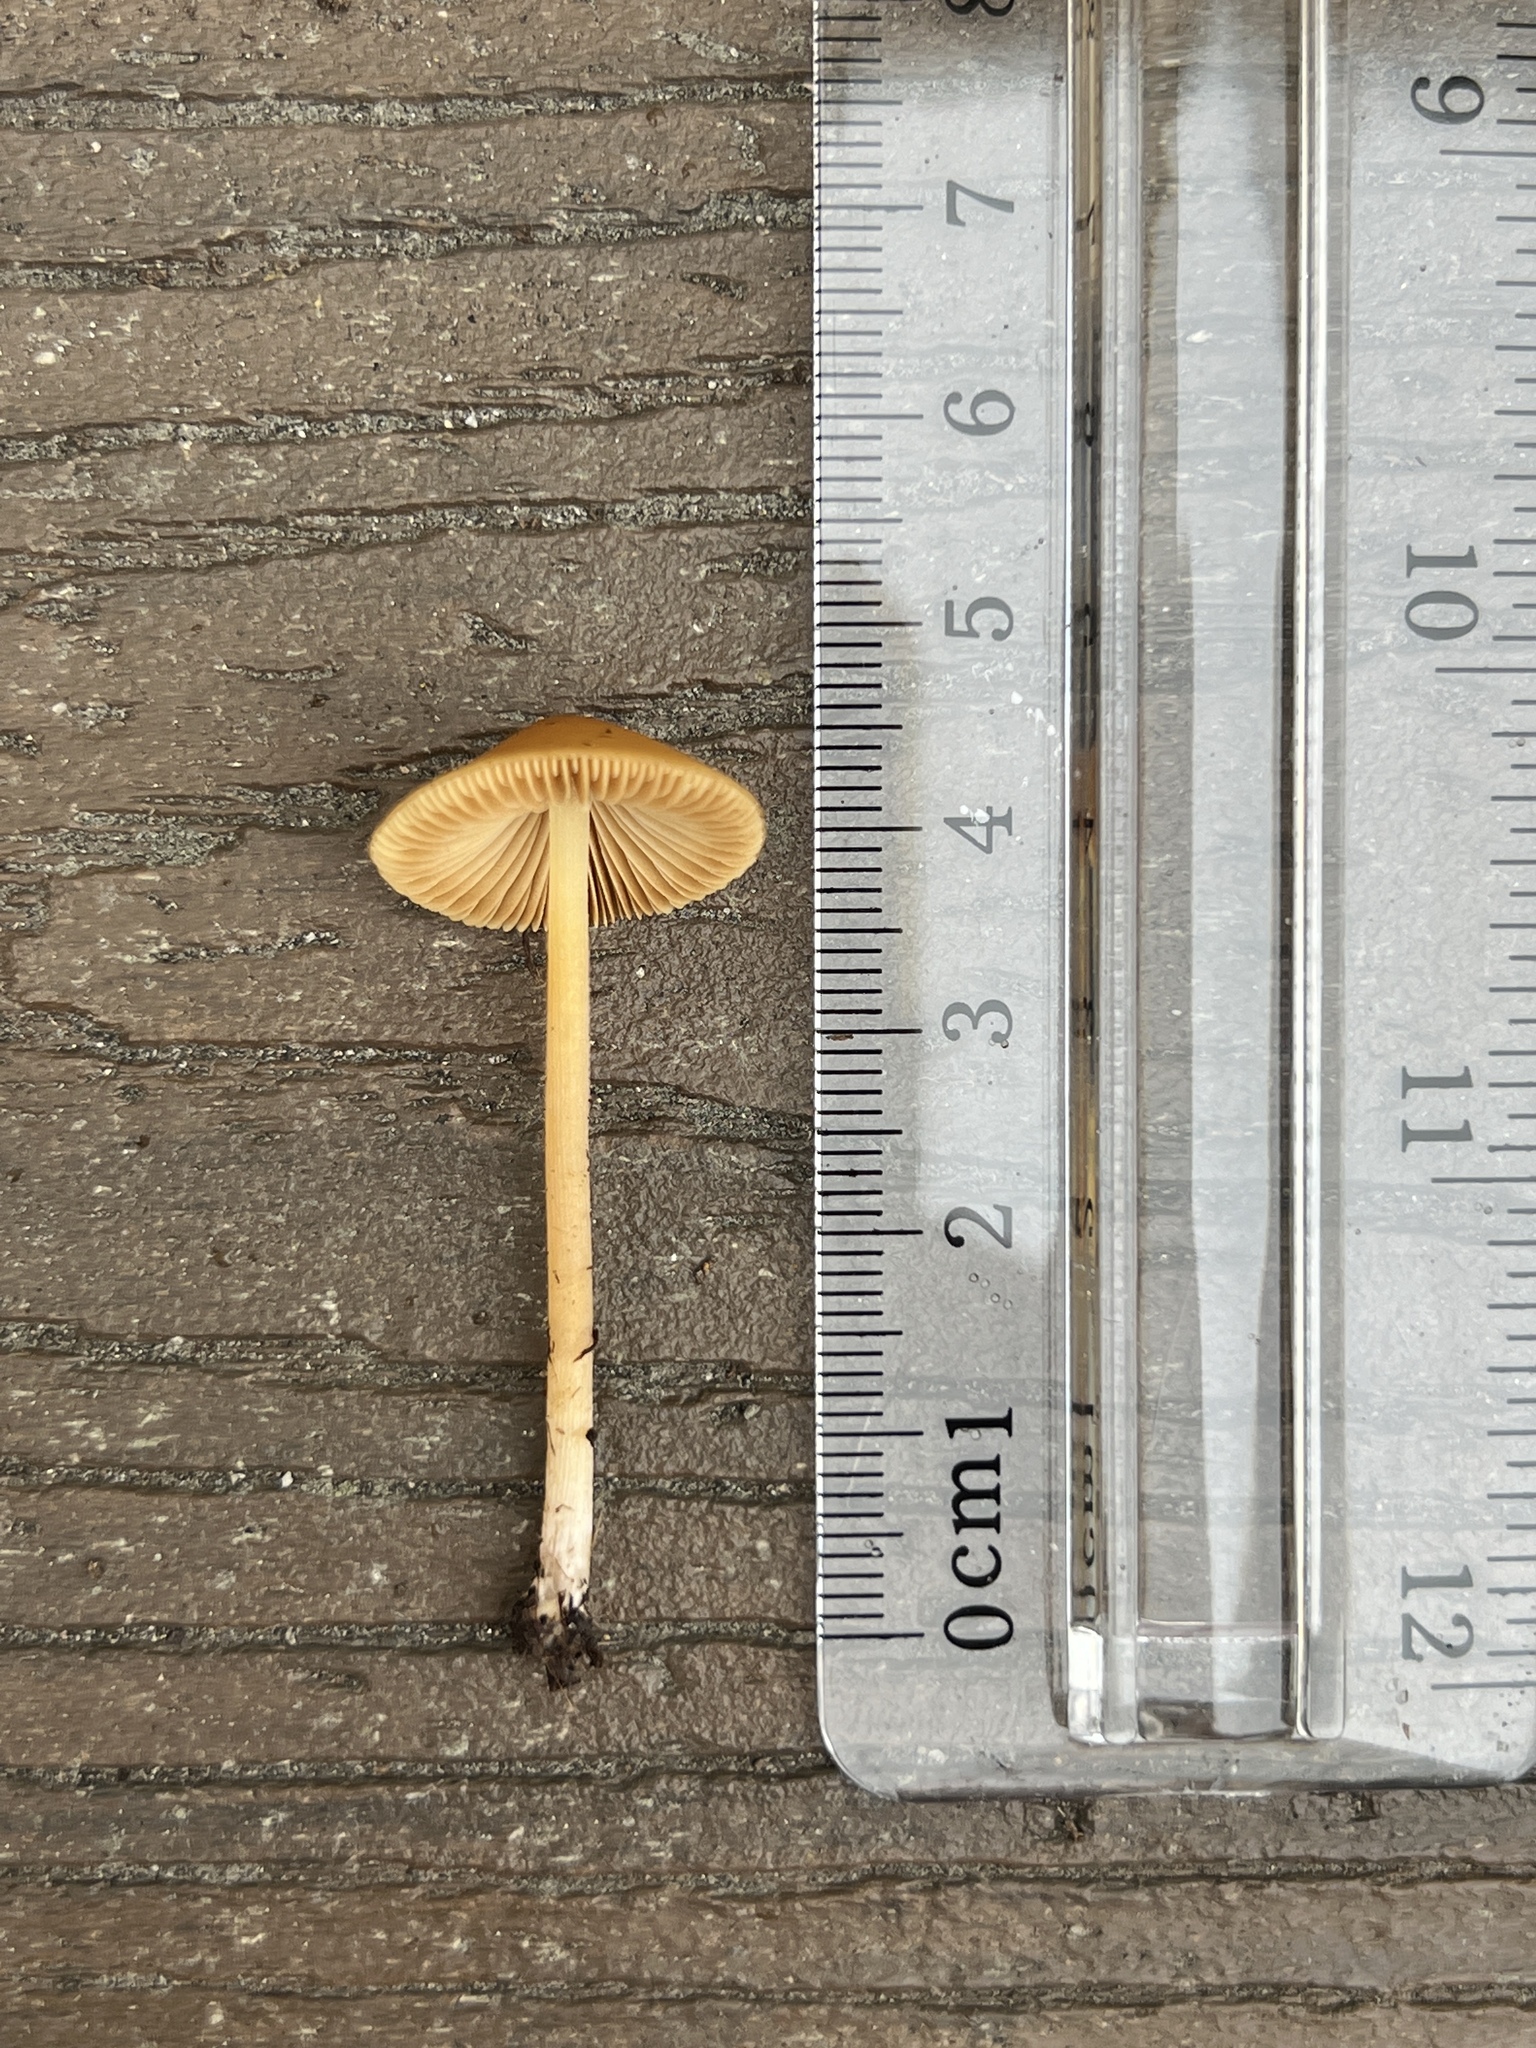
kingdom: Fungi
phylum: Basidiomycota
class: Agaricomycetes
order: Agaricales
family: Bolbitiaceae
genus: Conocybe
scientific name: Conocybe aurea
